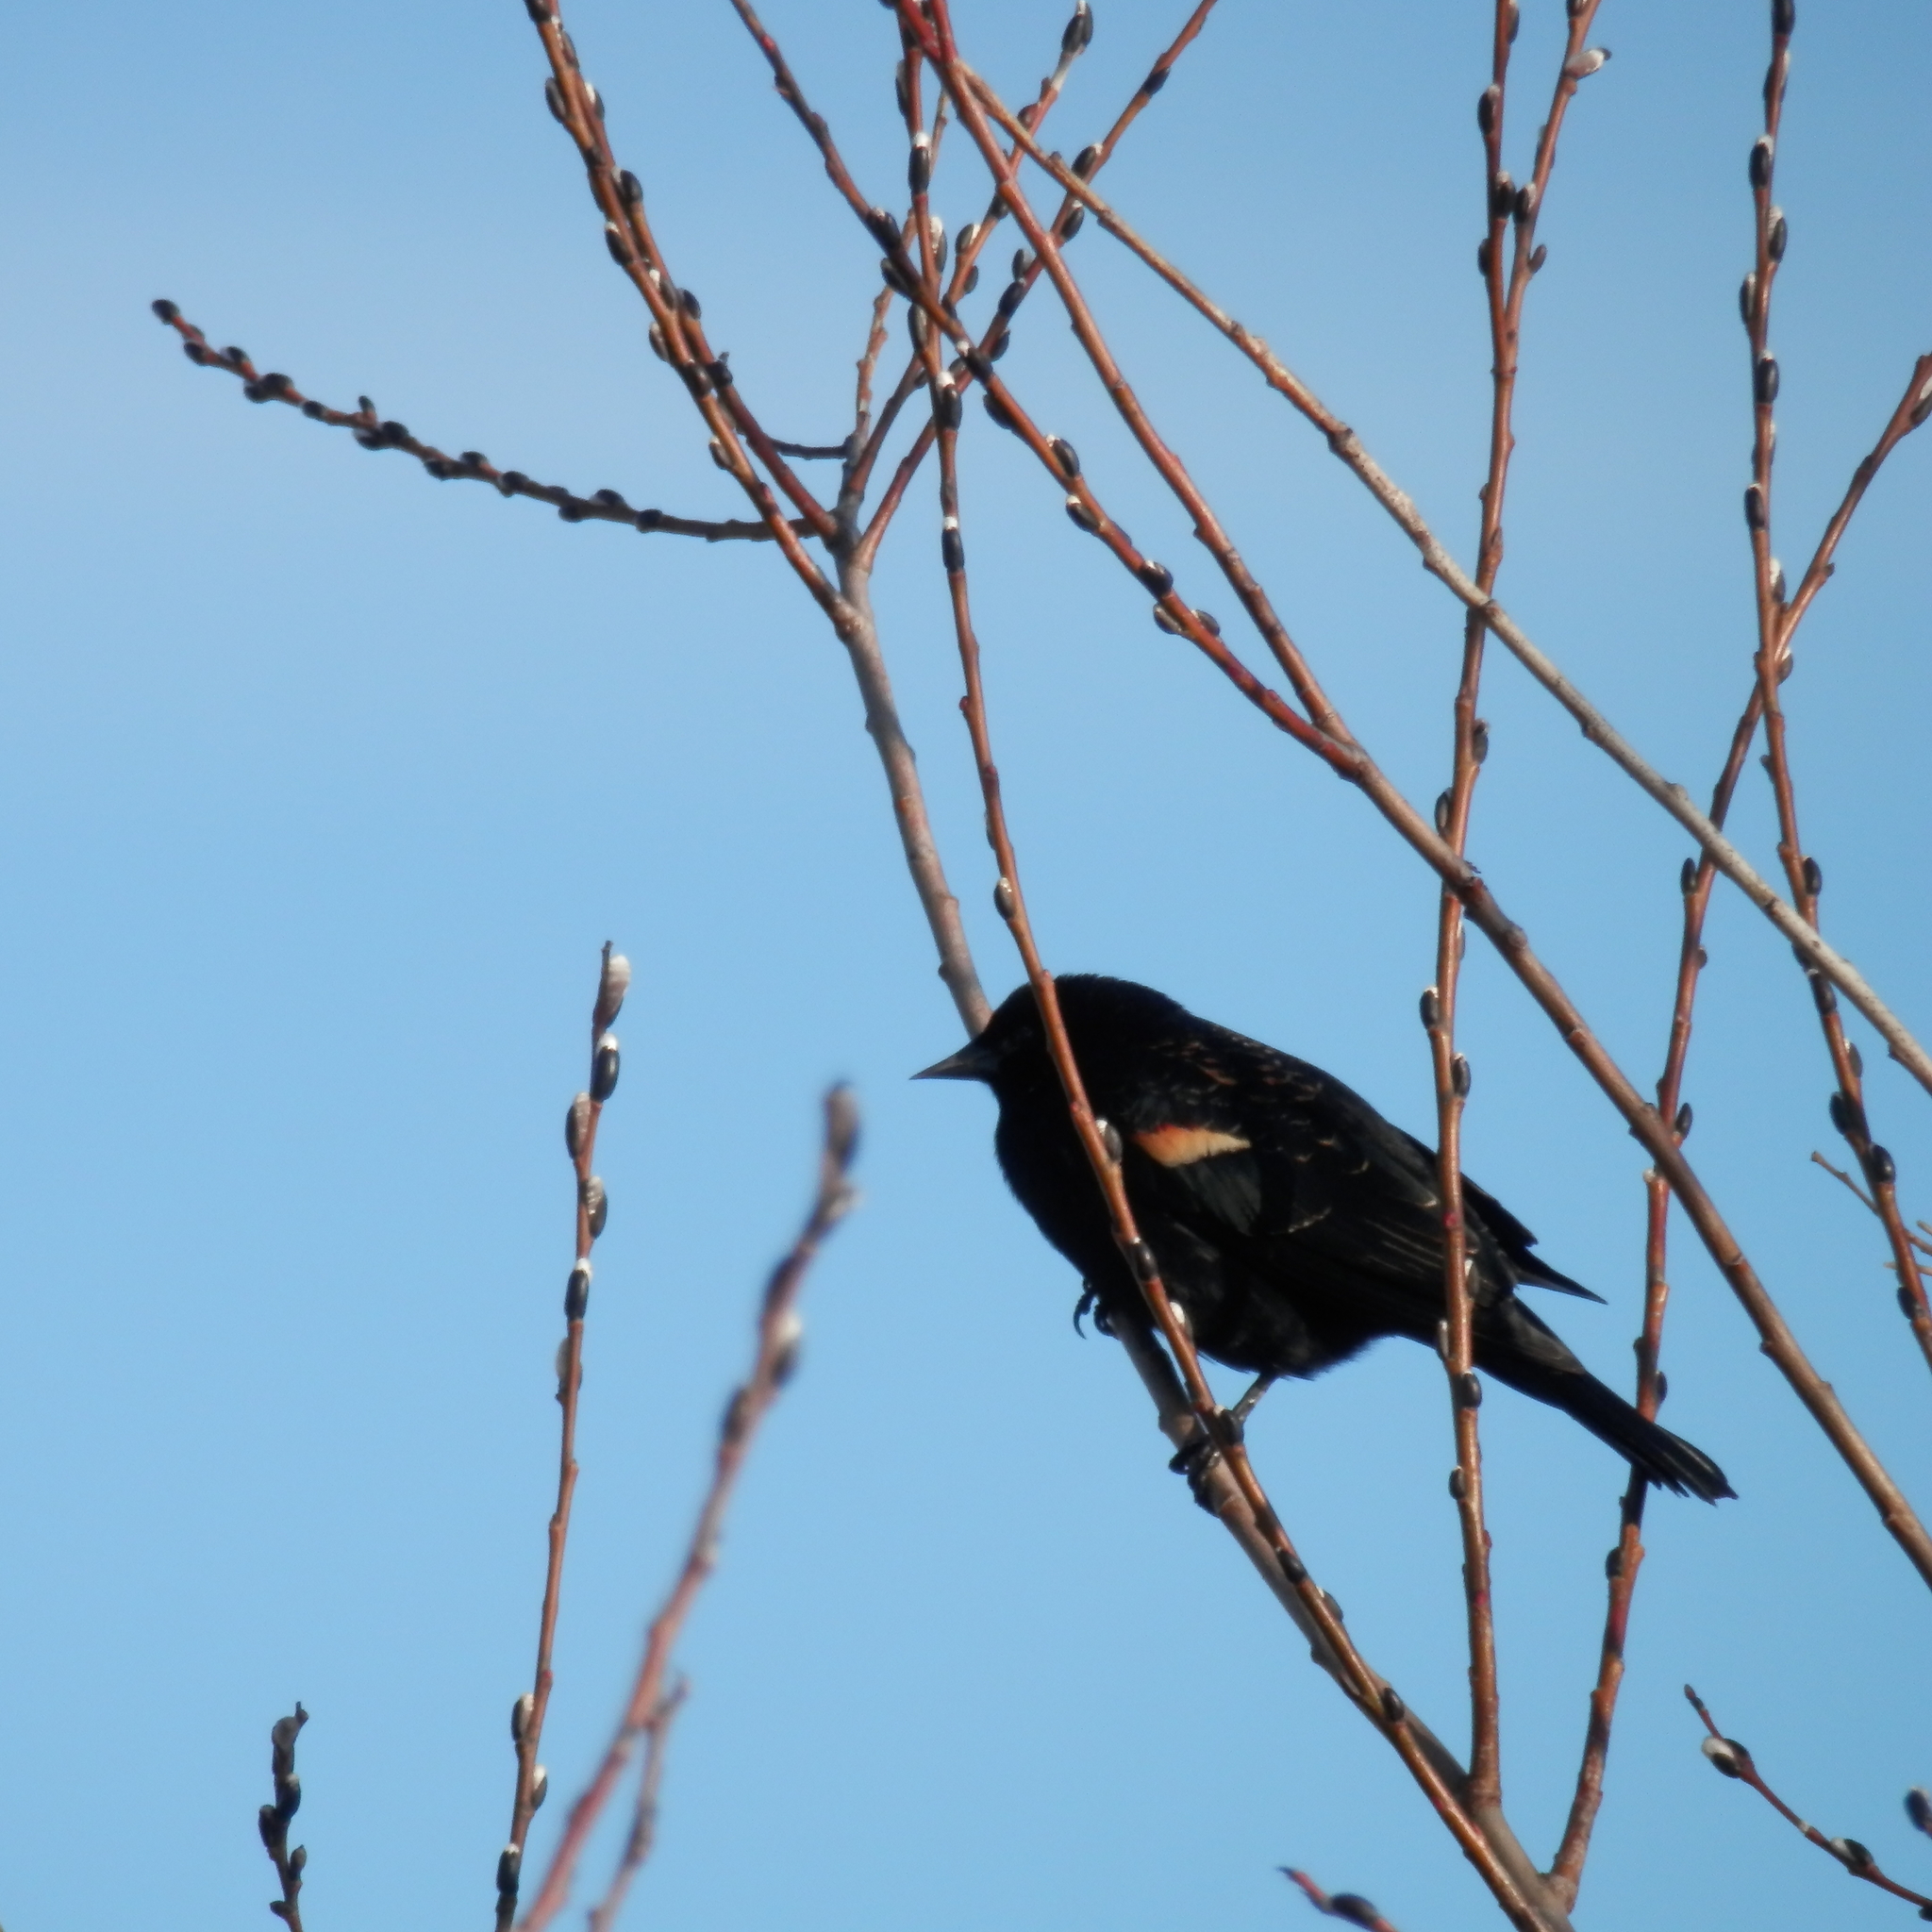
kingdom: Animalia
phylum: Chordata
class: Aves
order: Passeriformes
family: Icteridae
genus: Agelaius
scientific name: Agelaius phoeniceus
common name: Red-winged blackbird
